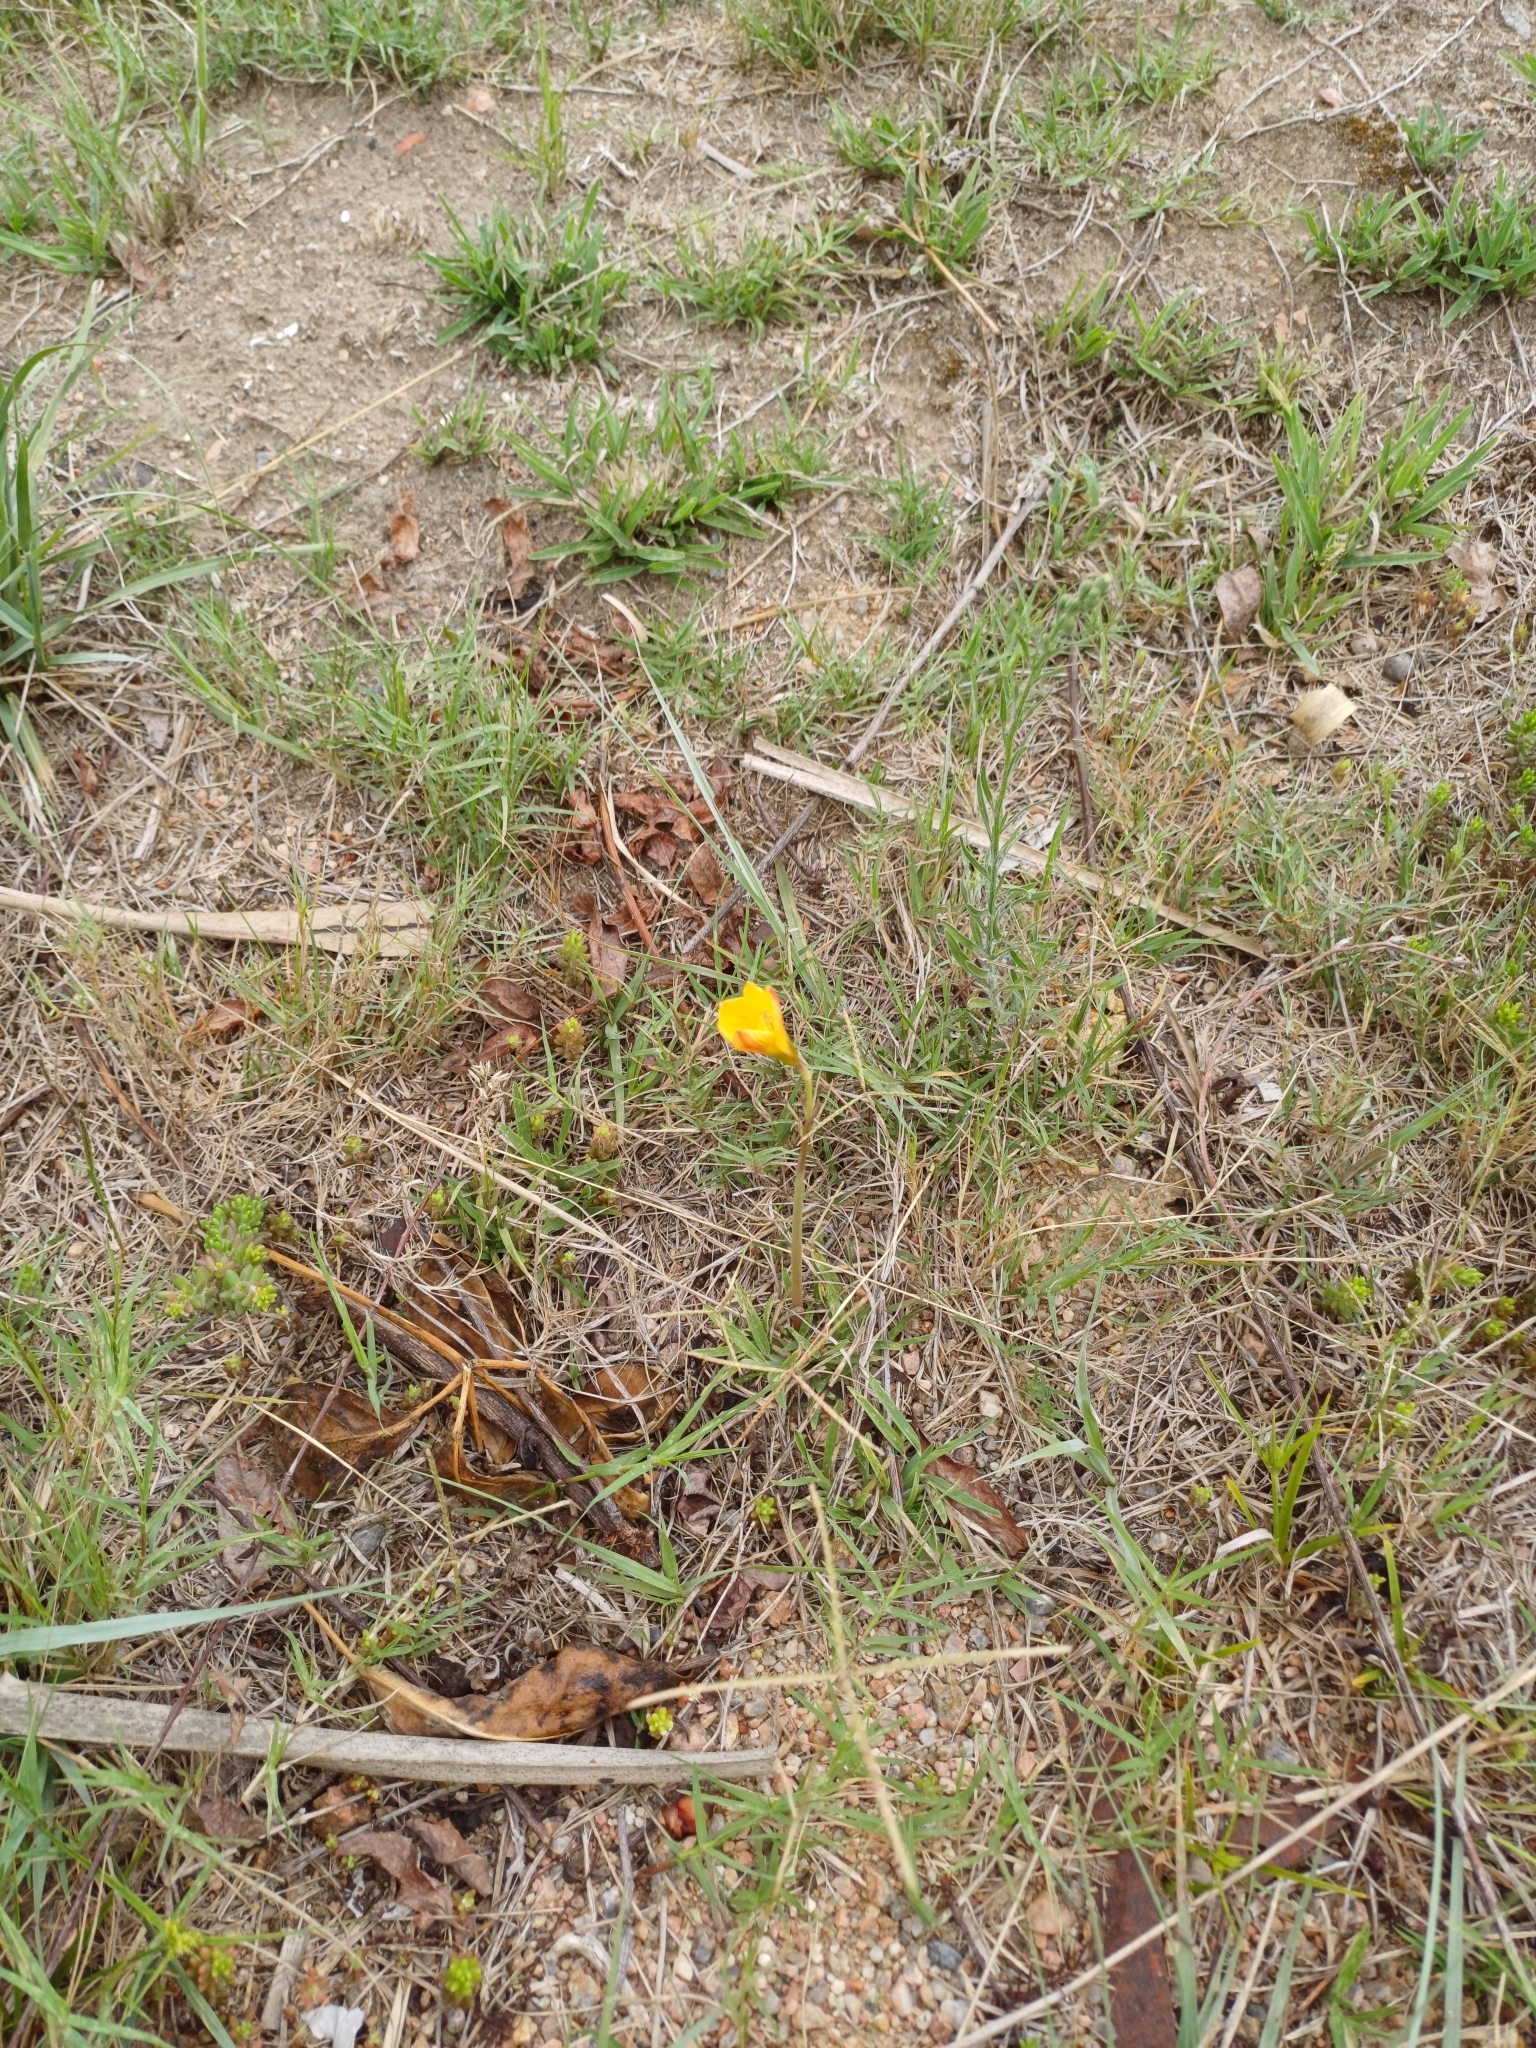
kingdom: Plantae
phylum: Tracheophyta
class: Liliopsida
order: Asparagales
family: Amaryllidaceae
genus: Zephyranthes
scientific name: Zephyranthes tubispatha
